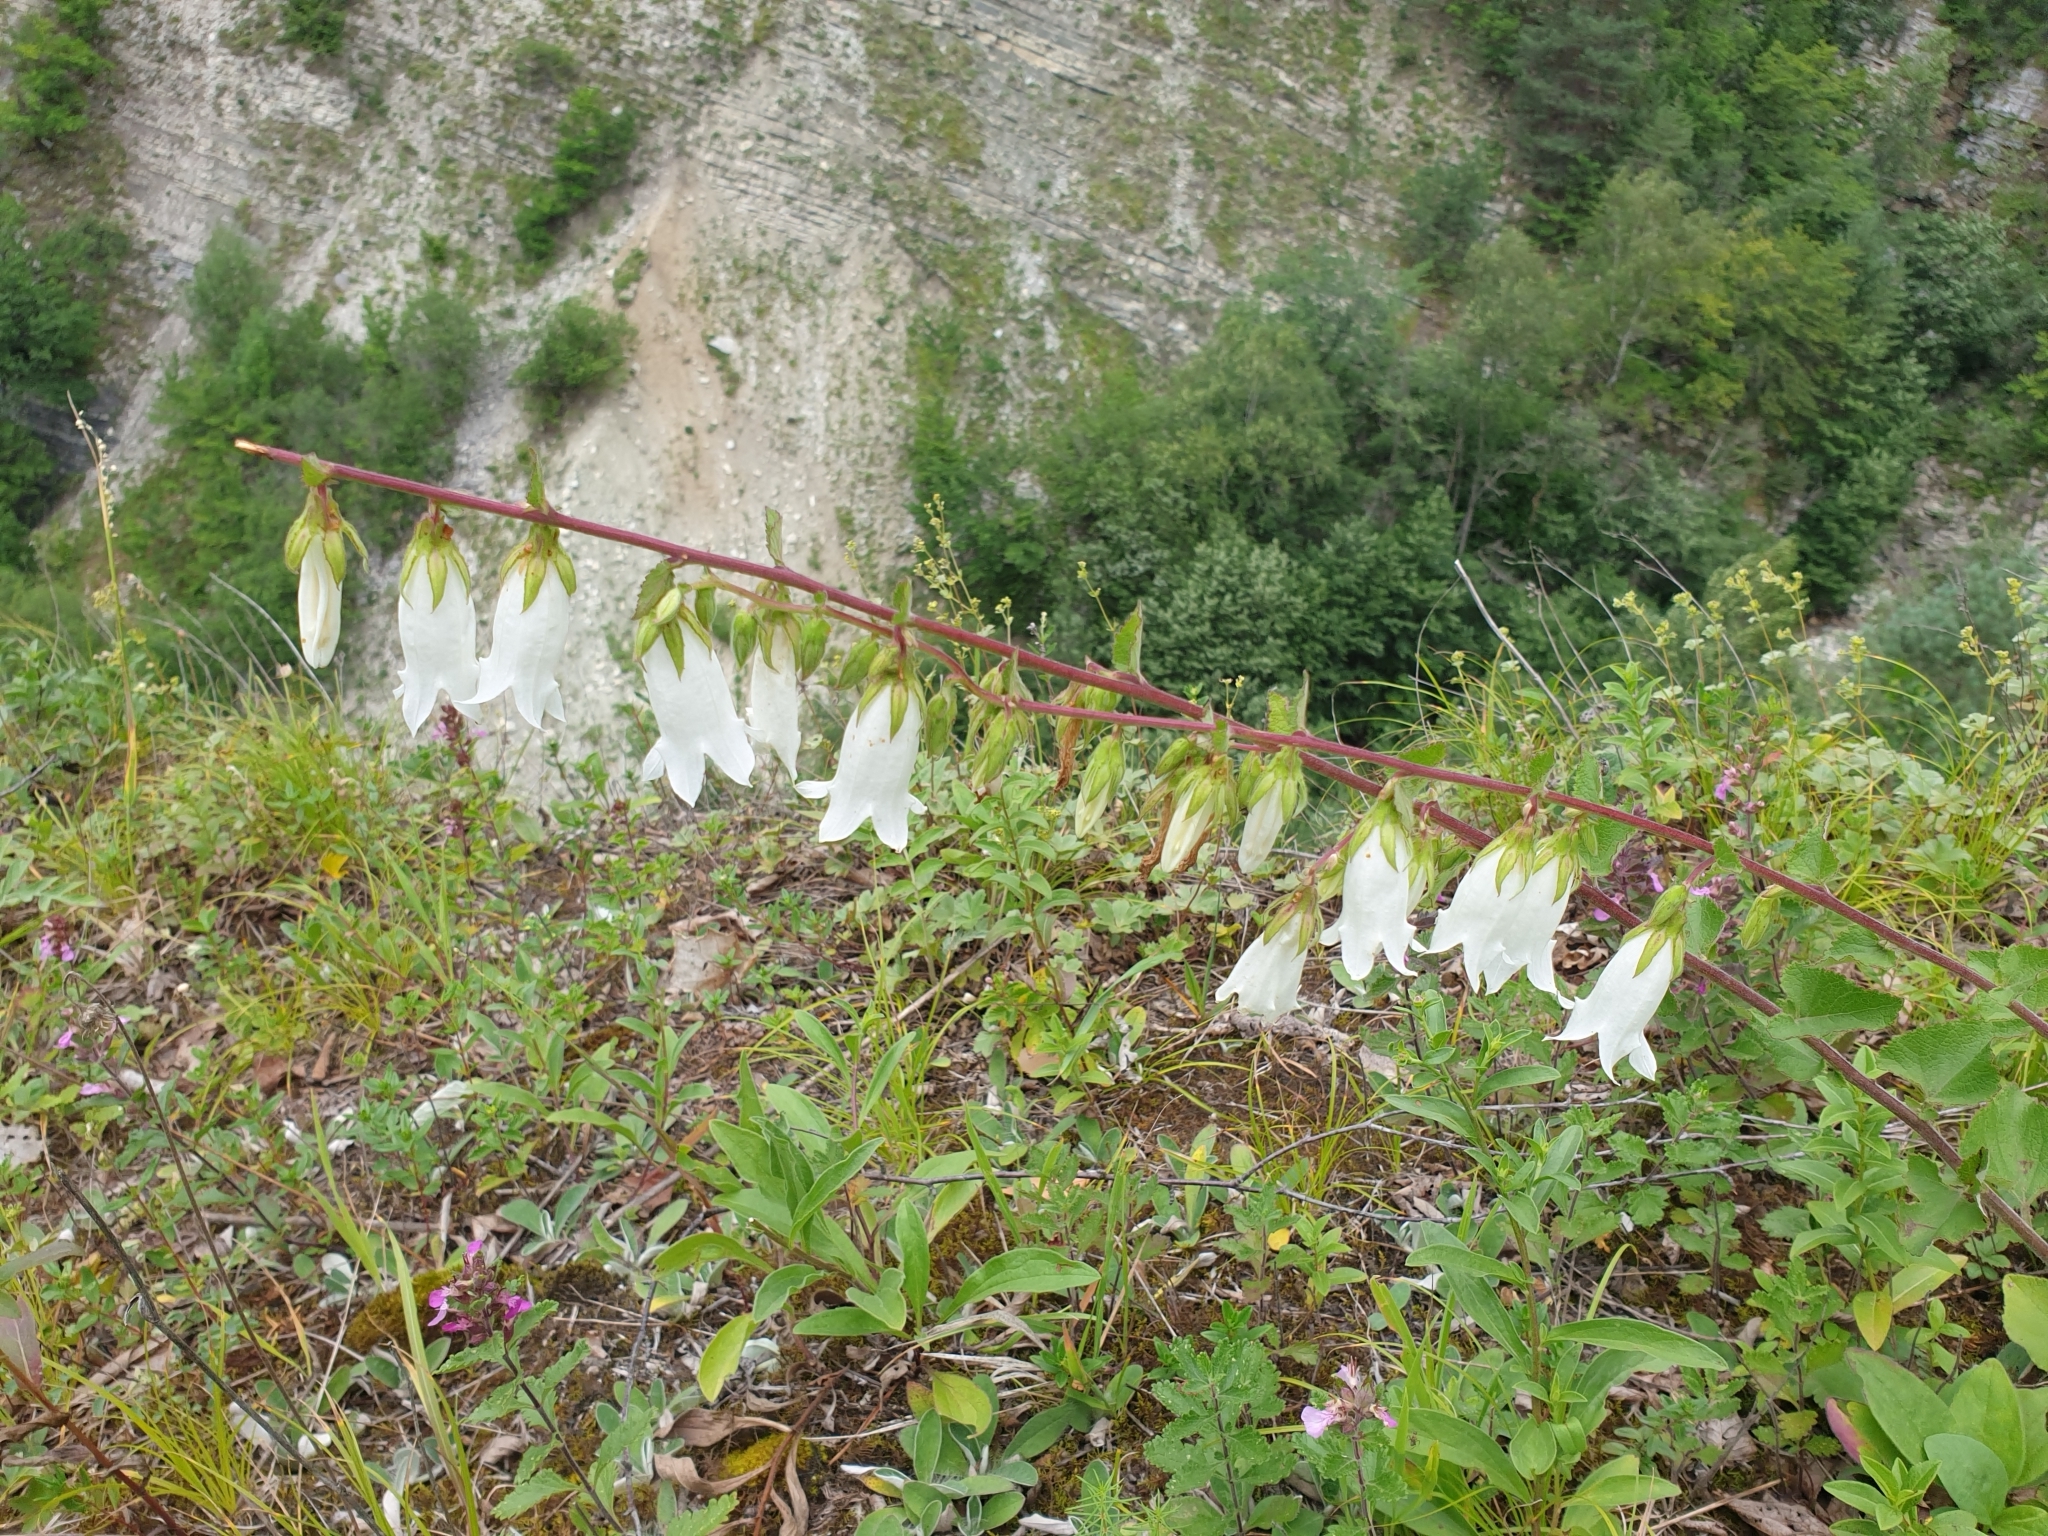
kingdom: Plantae
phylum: Tracheophyta
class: Magnoliopsida
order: Asterales
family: Campanulaceae
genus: Campanula
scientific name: Campanula alliariifolia
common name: Cornish bellflower
